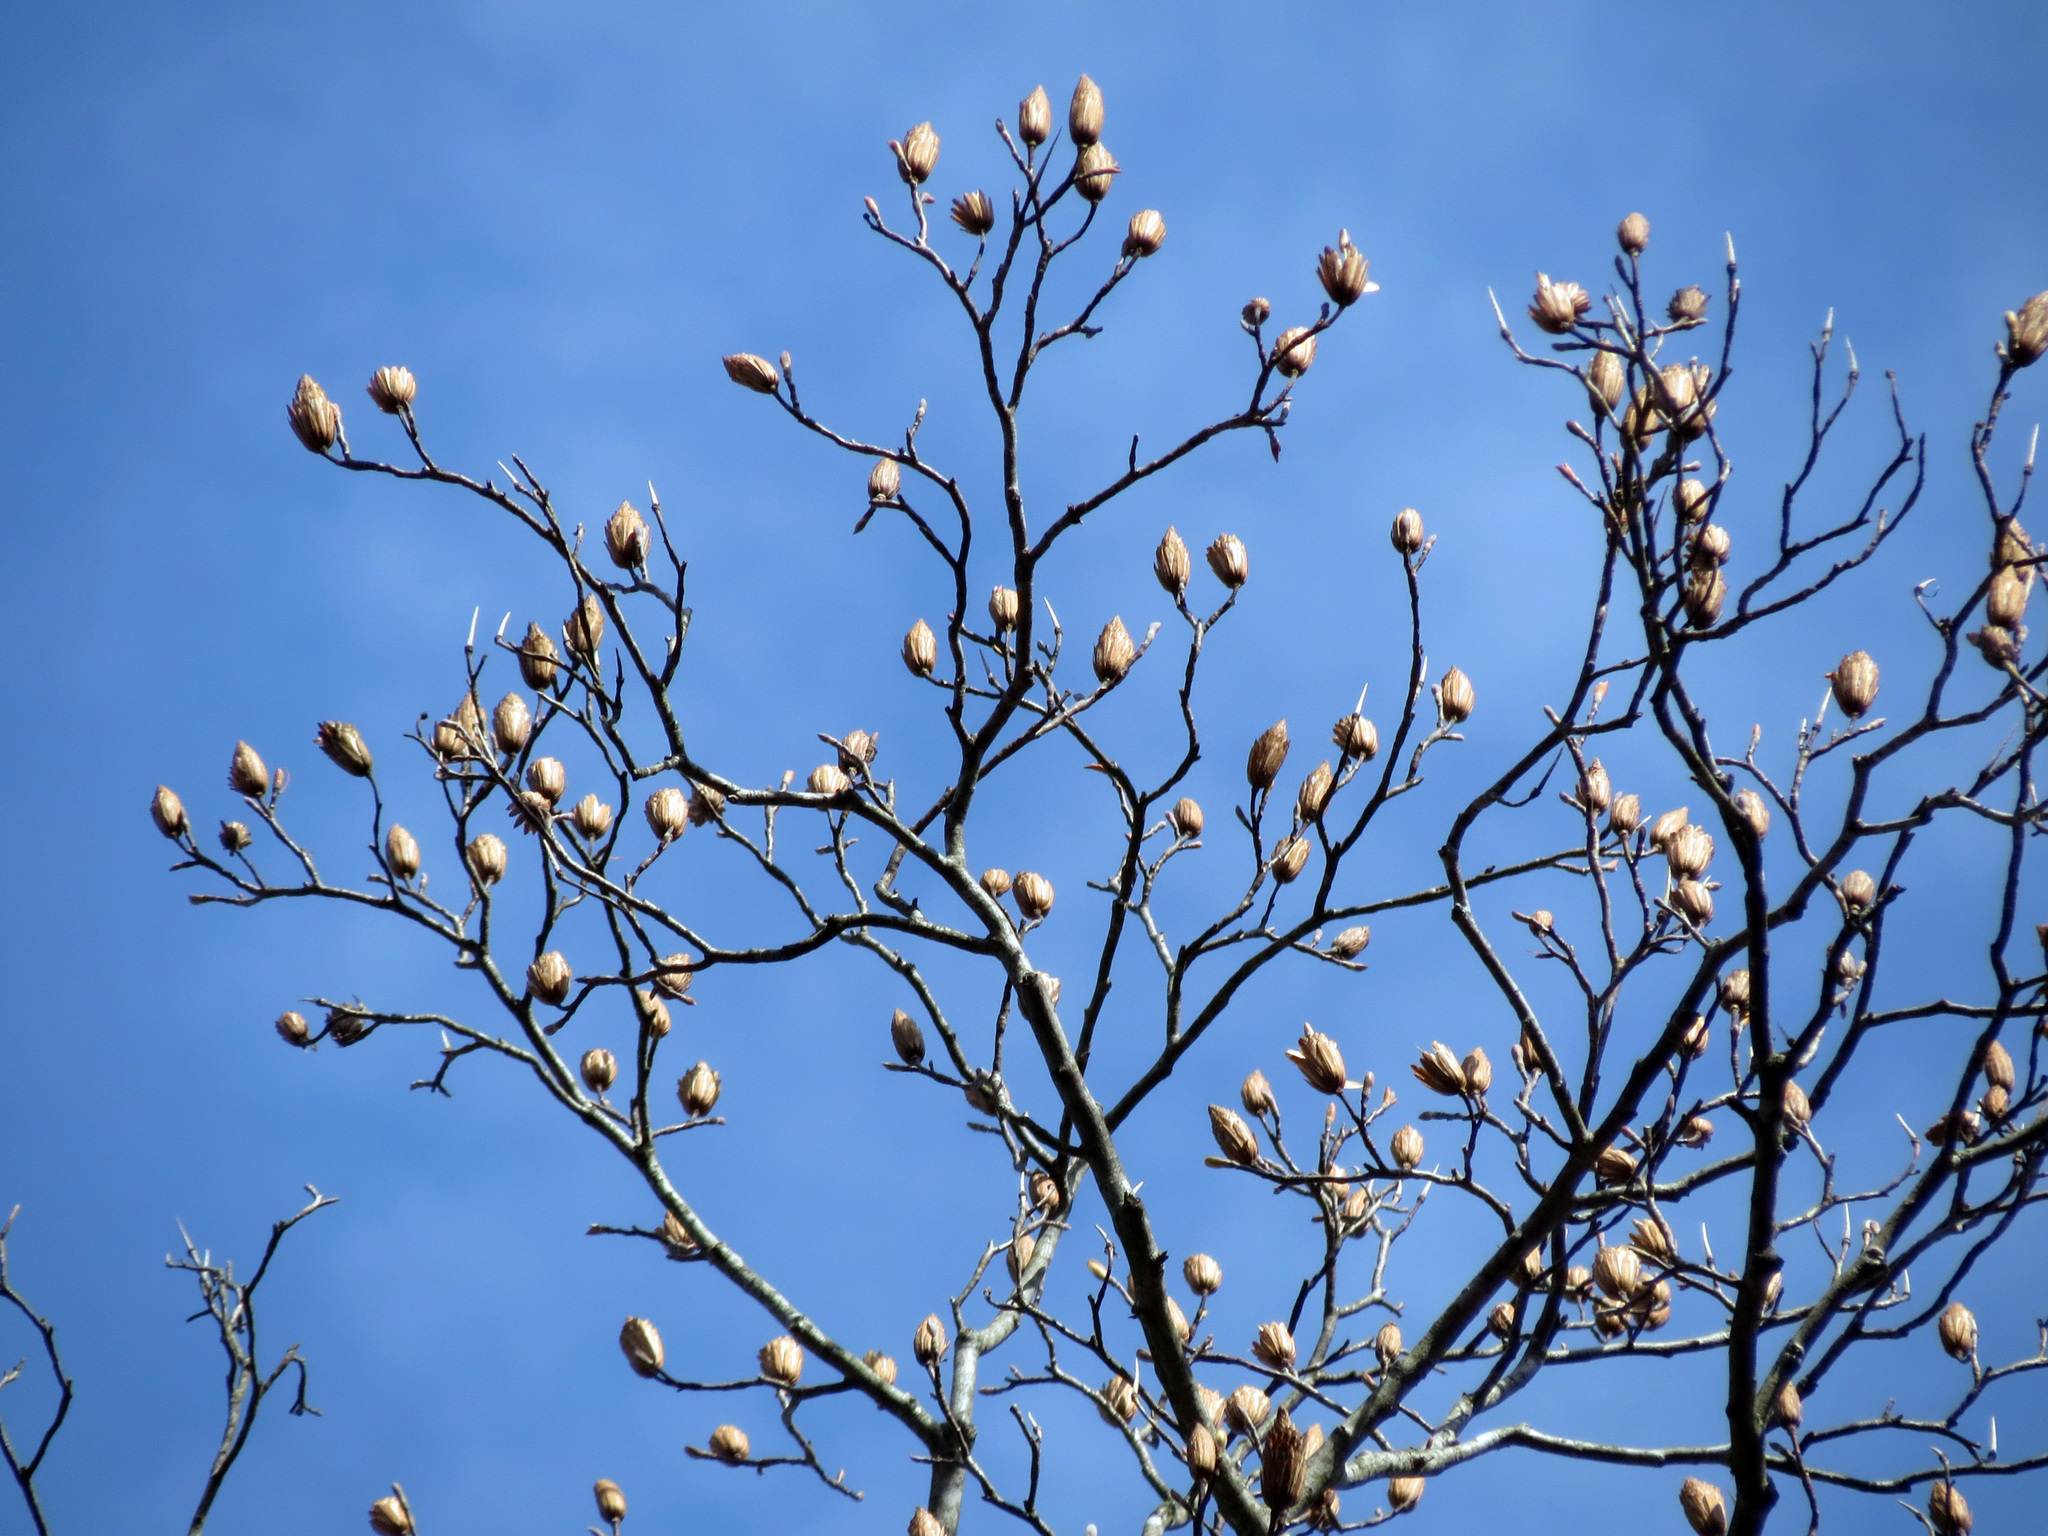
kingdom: Plantae
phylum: Tracheophyta
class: Magnoliopsida
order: Magnoliales
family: Magnoliaceae
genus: Liriodendron
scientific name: Liriodendron tulipifera
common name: Tulip tree
